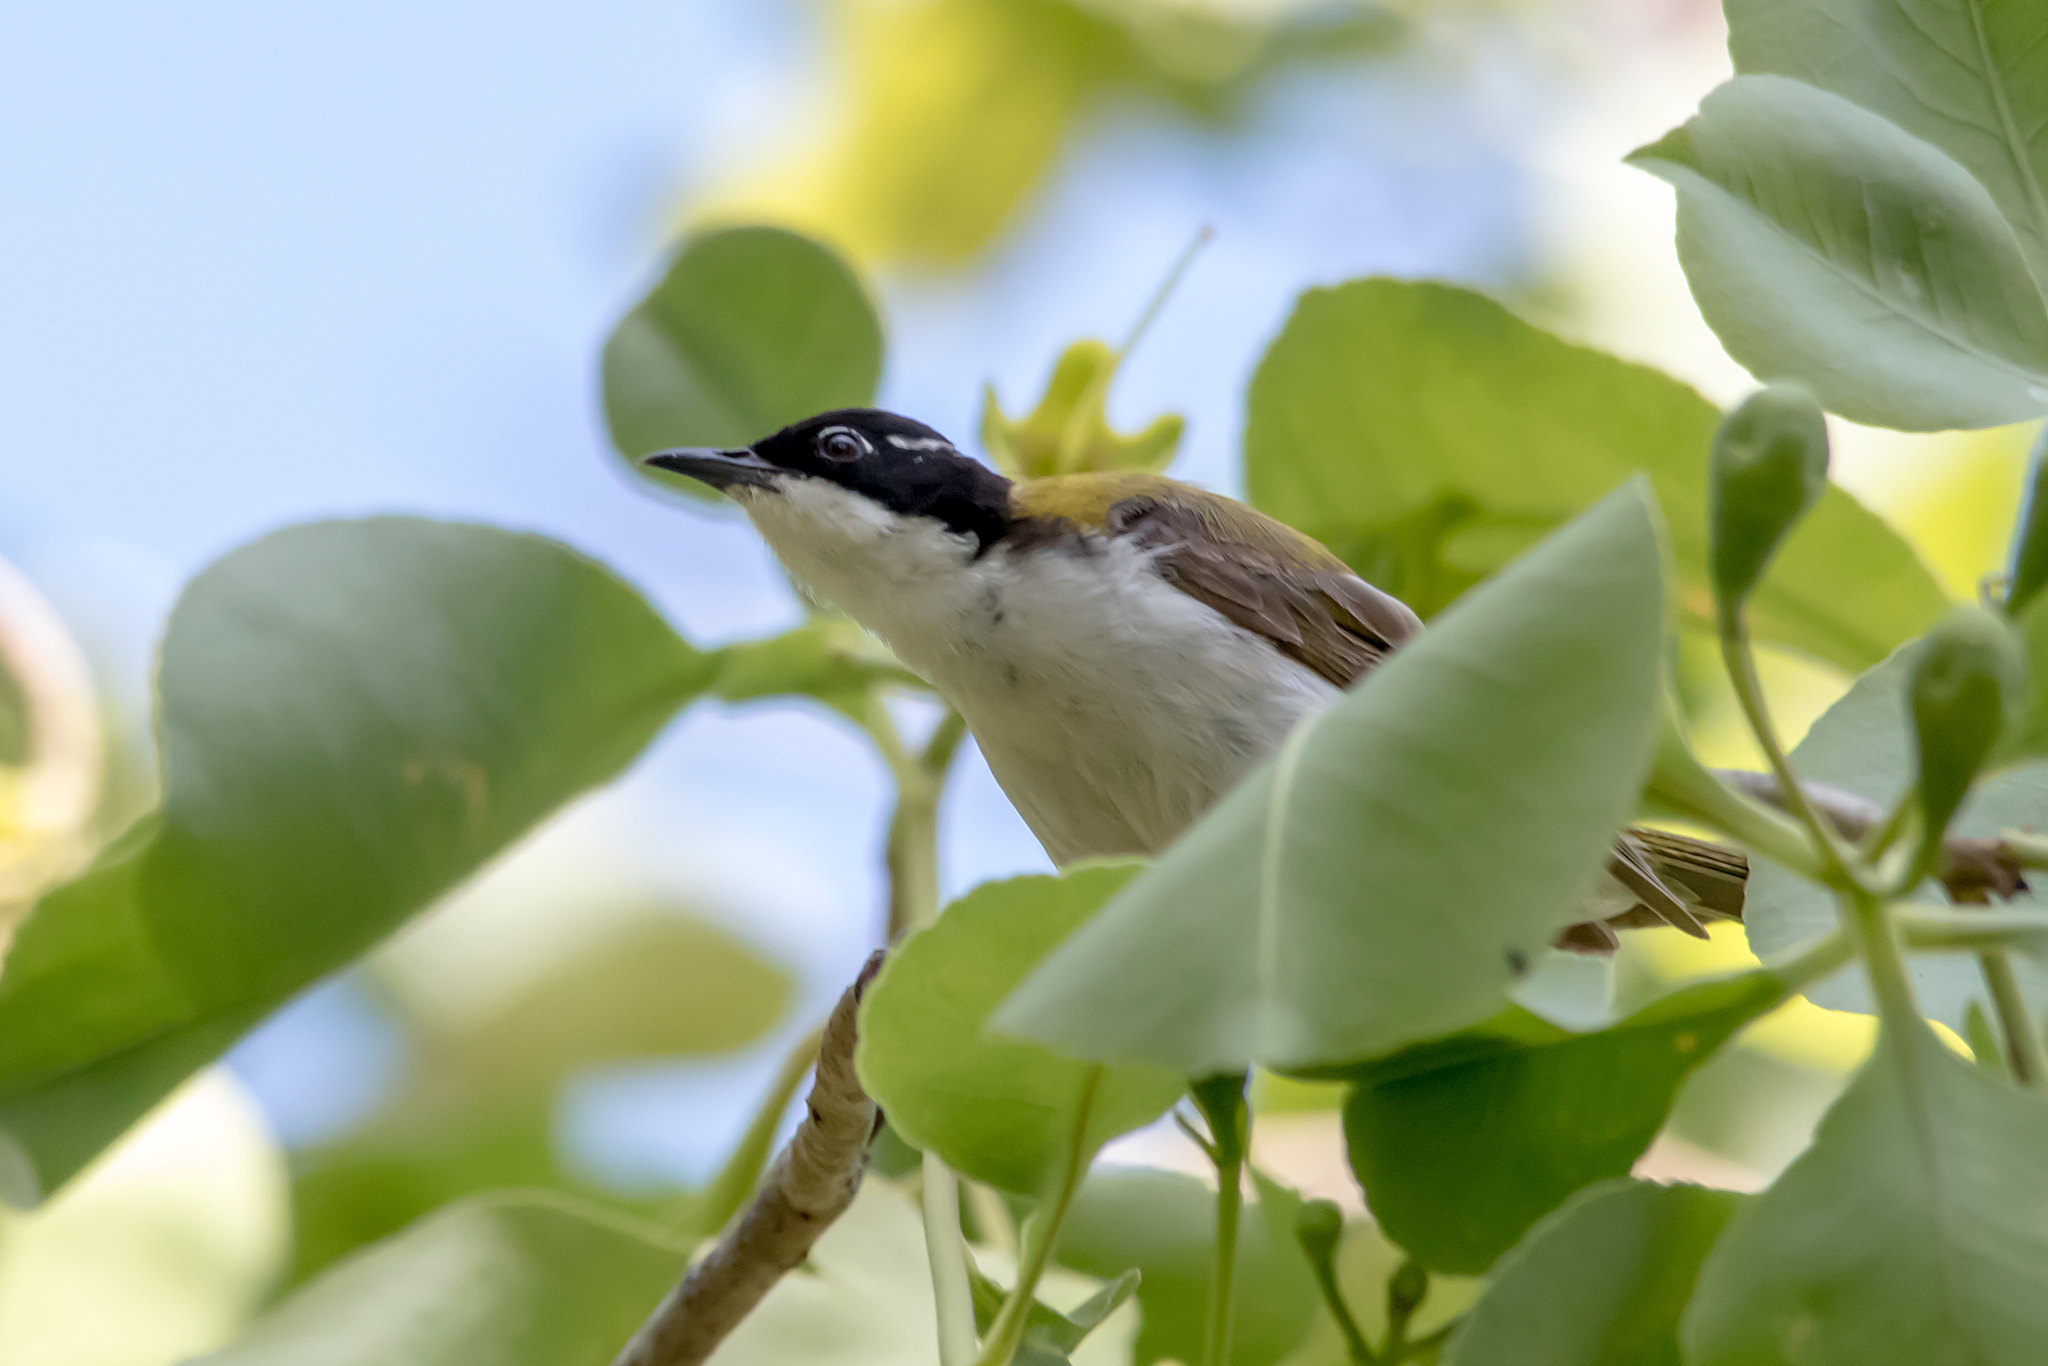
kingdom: Animalia
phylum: Chordata
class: Aves
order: Passeriformes
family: Meliphagidae
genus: Melithreptus
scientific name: Melithreptus albogularis
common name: White-throated honeyeater
